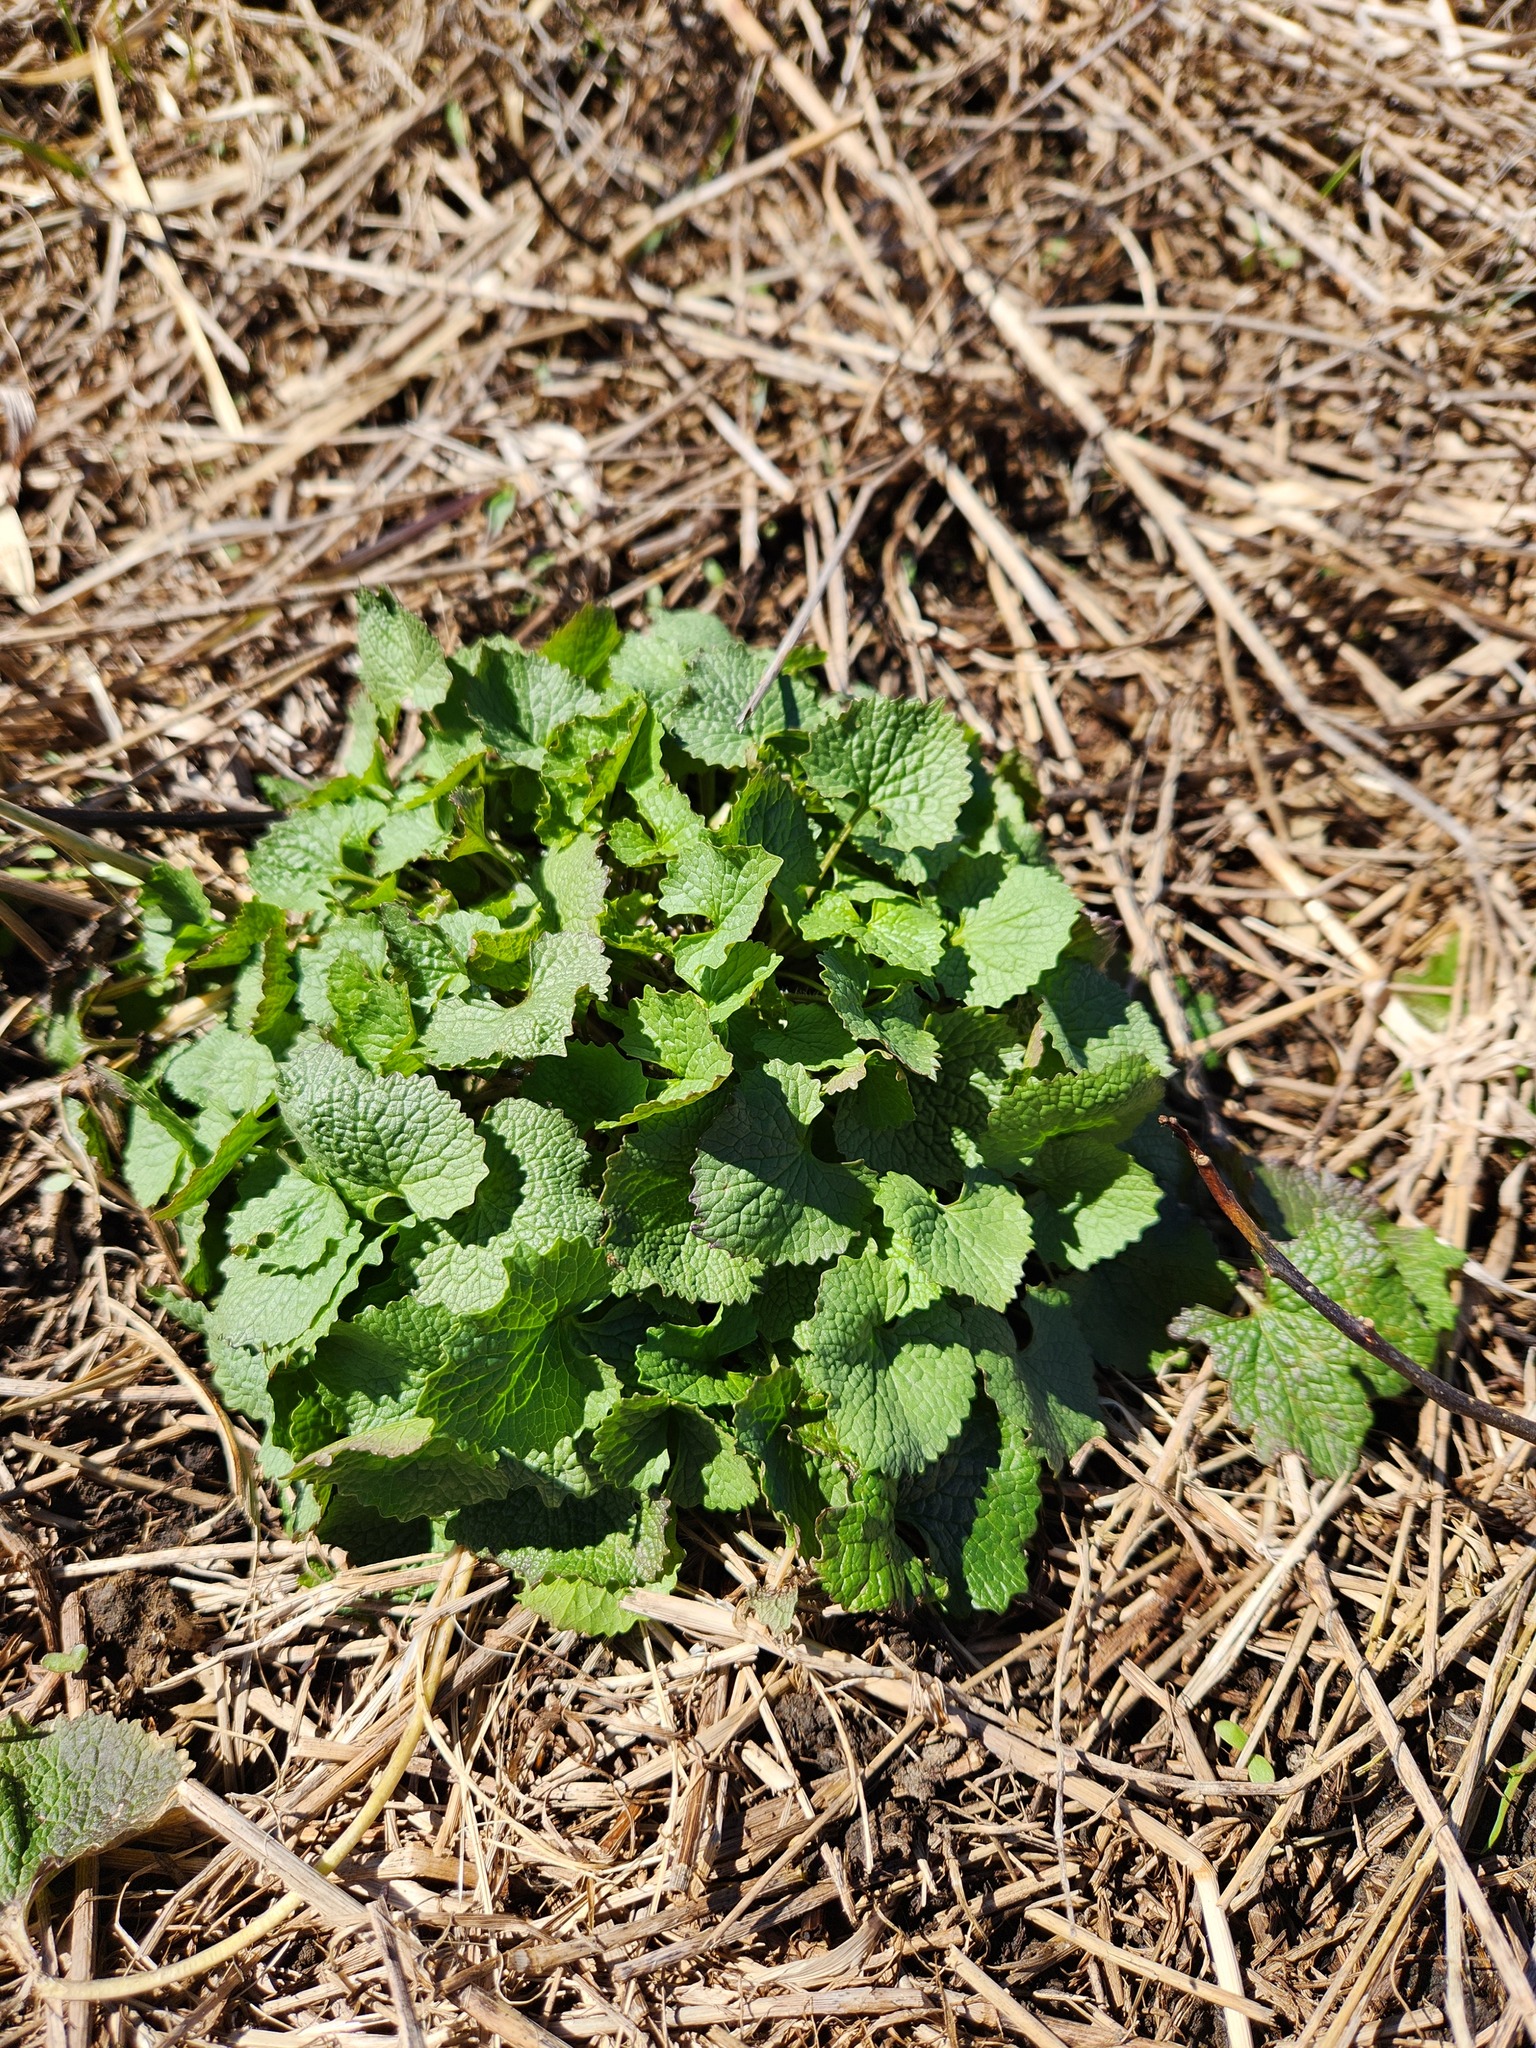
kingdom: Plantae
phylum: Tracheophyta
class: Magnoliopsida
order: Brassicales
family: Brassicaceae
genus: Alliaria
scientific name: Alliaria petiolata
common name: Garlic mustard
